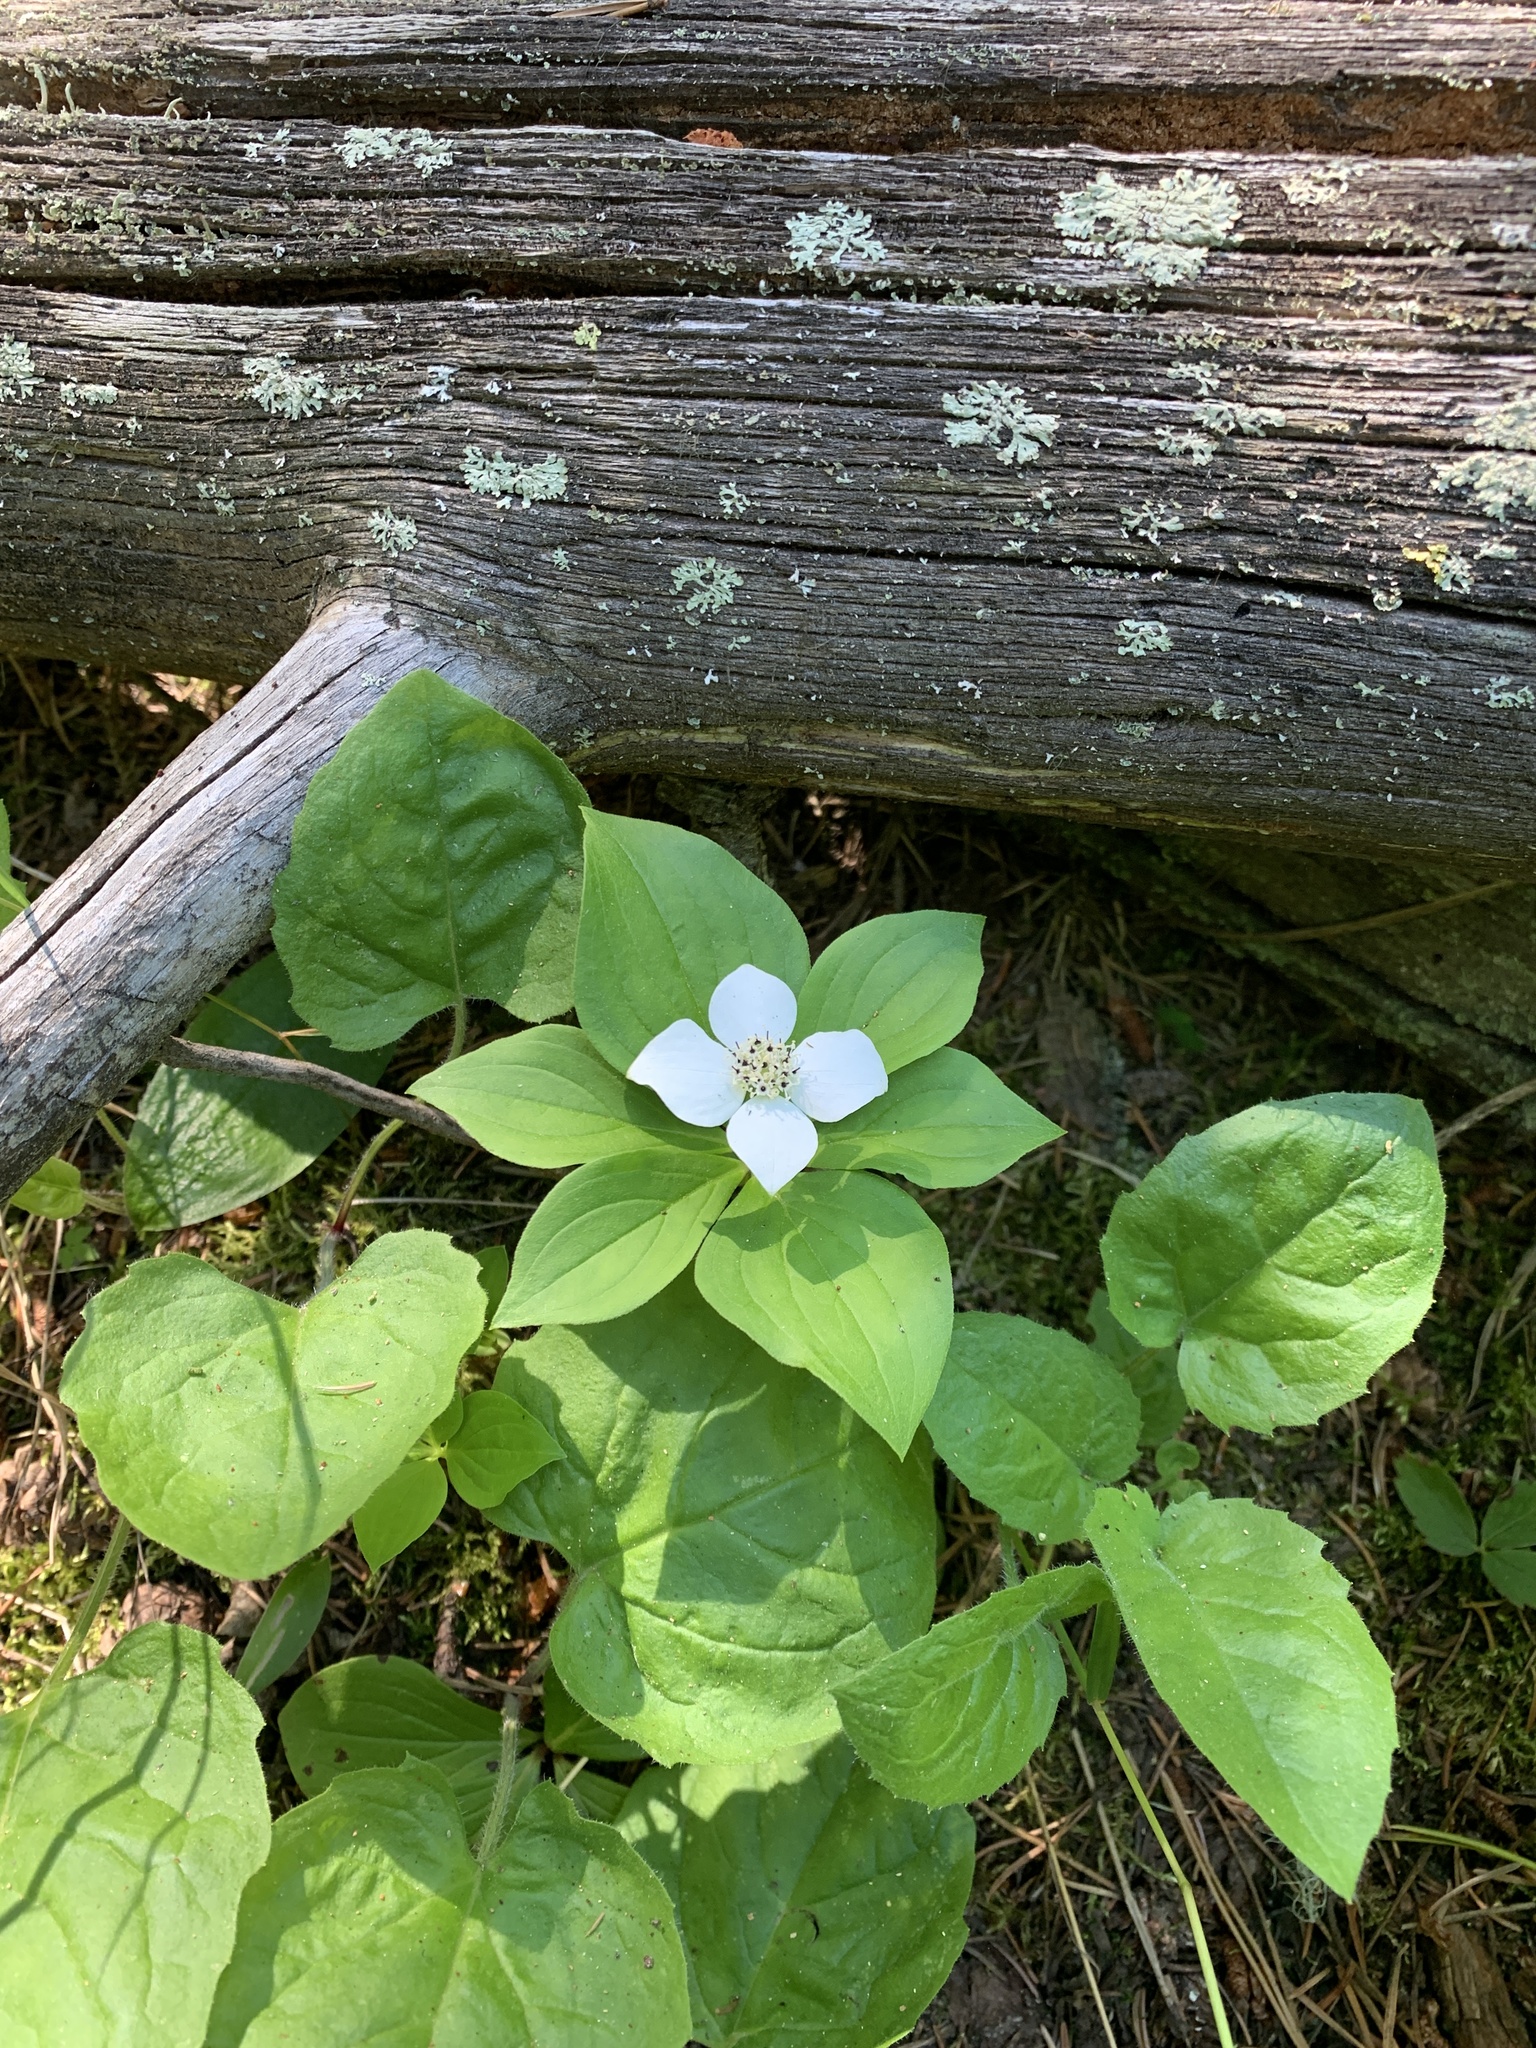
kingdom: Plantae
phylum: Tracheophyta
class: Magnoliopsida
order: Cornales
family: Cornaceae
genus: Cornus
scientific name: Cornus canadensis
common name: Creeping dogwood
